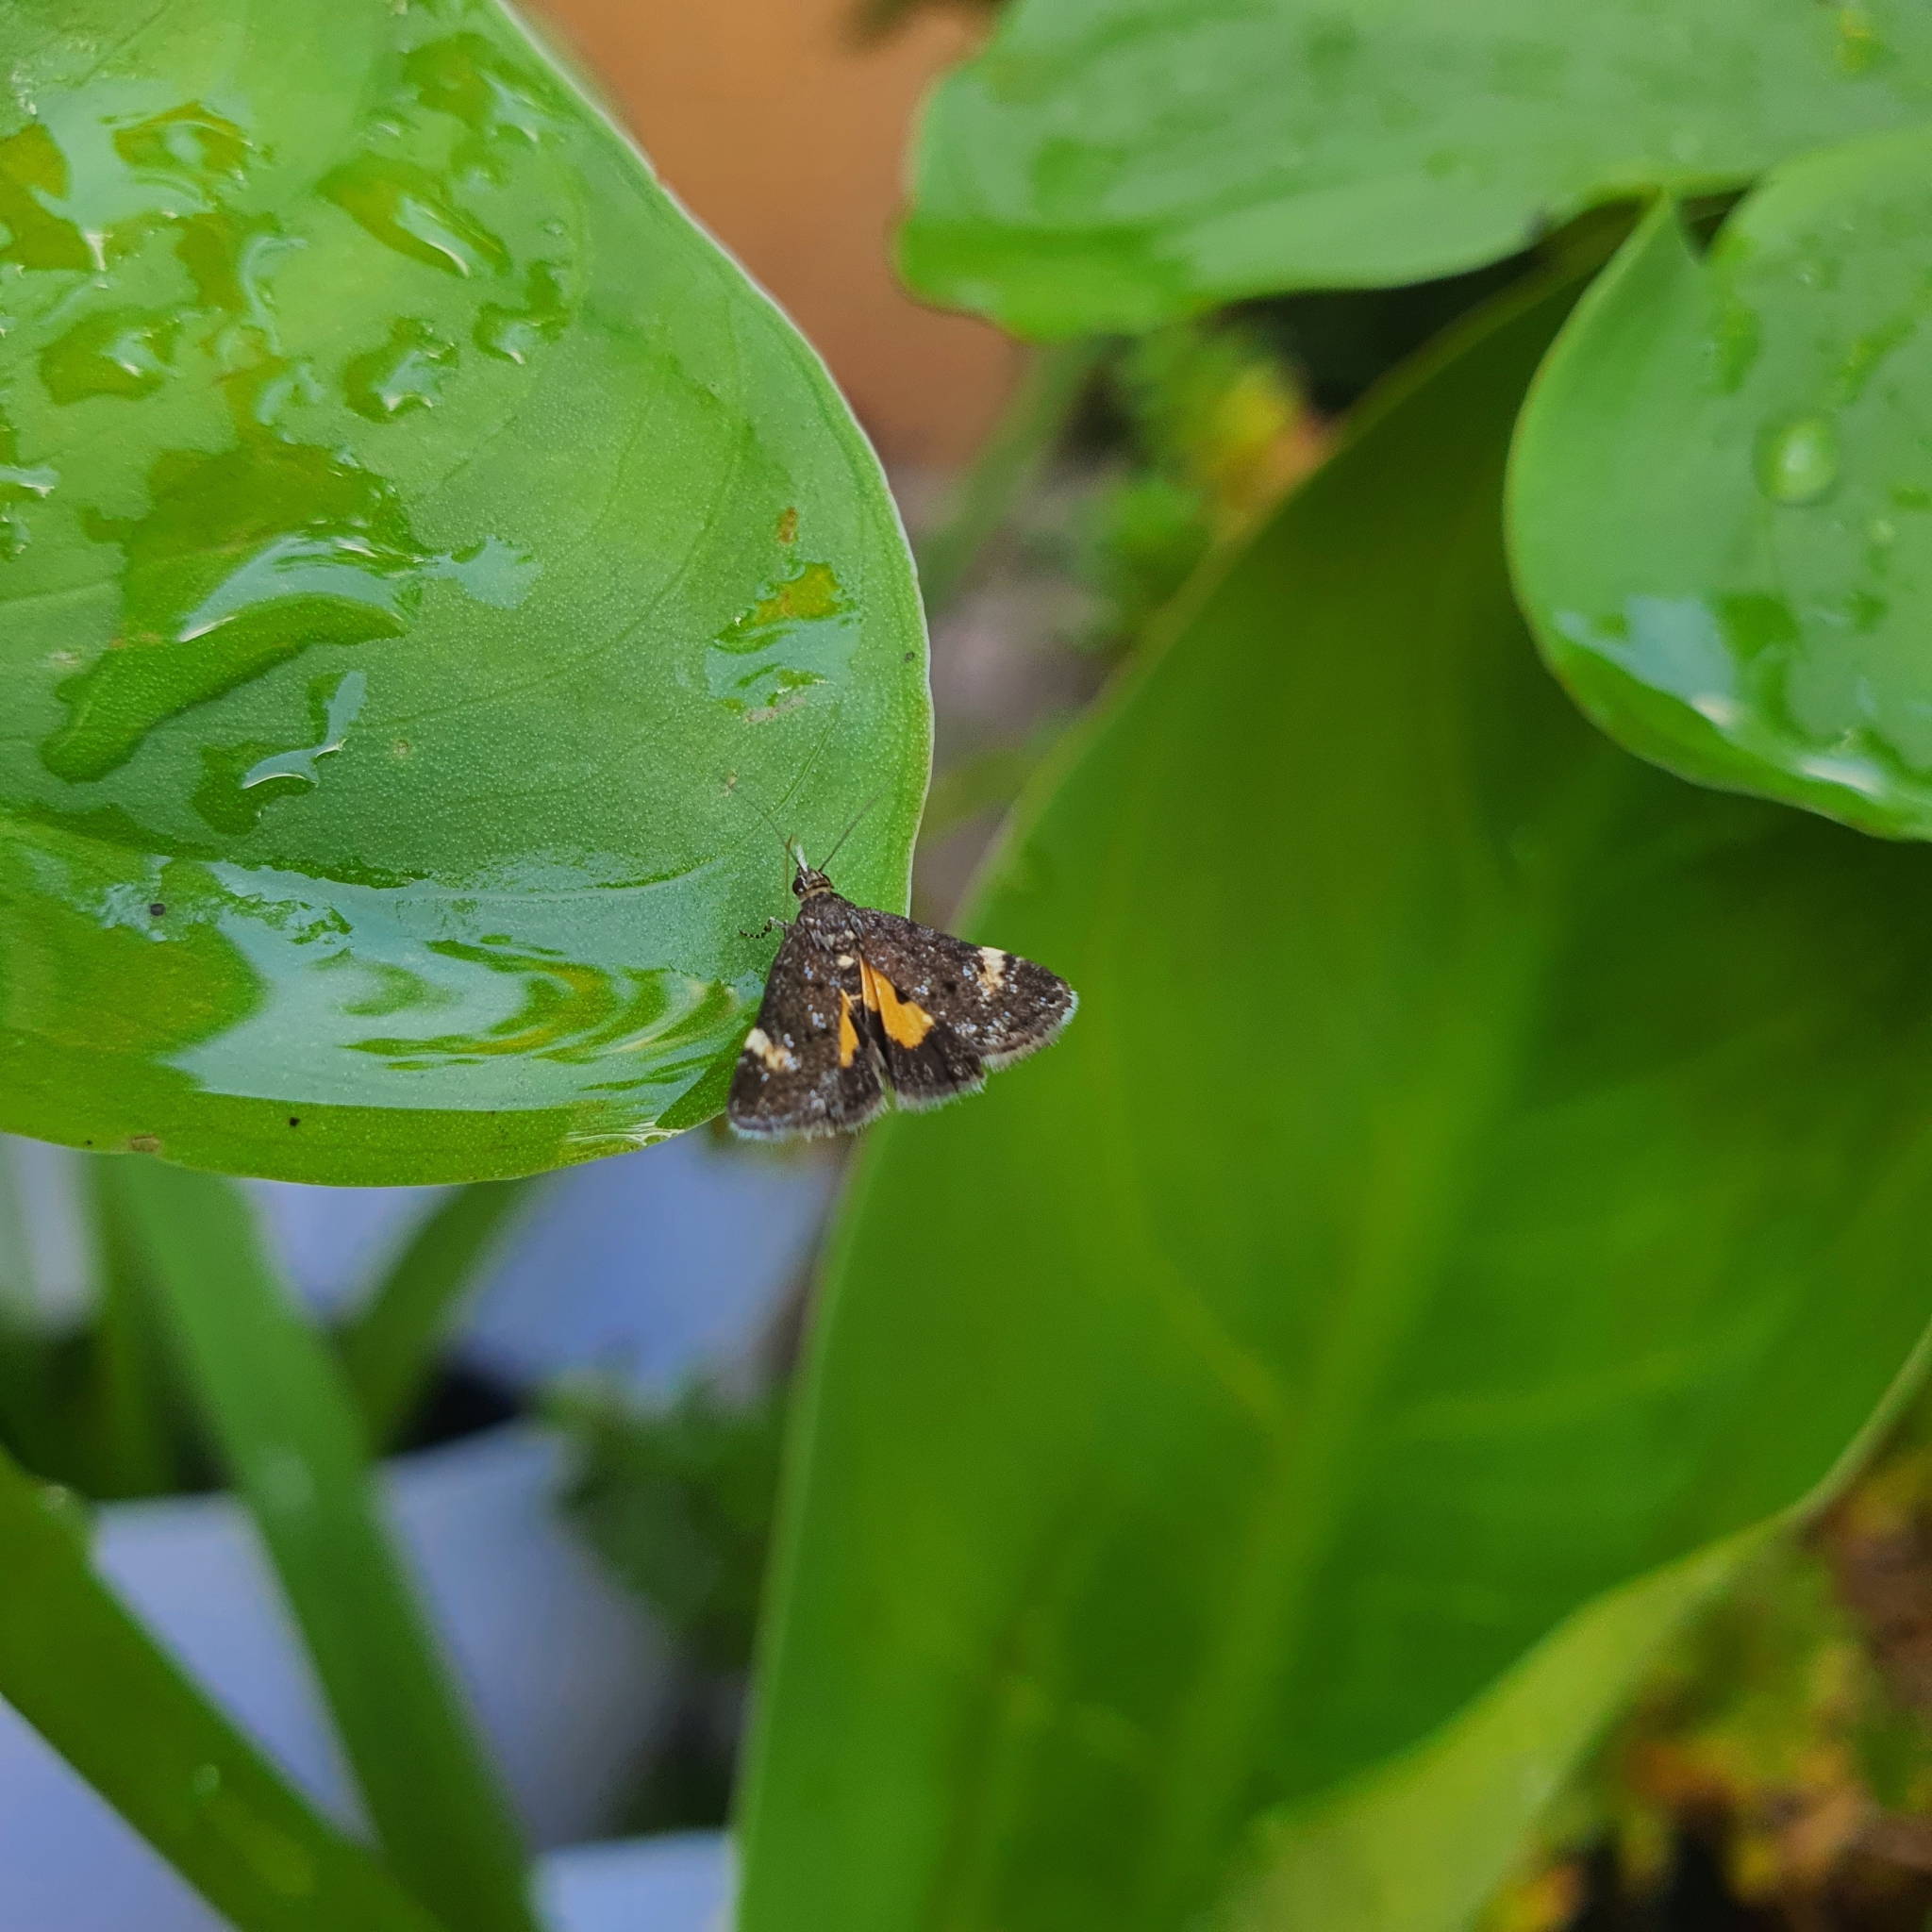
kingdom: Animalia
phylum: Arthropoda
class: Insecta
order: Lepidoptera
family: Crambidae
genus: Heliothela
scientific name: Heliothela ophideresana
